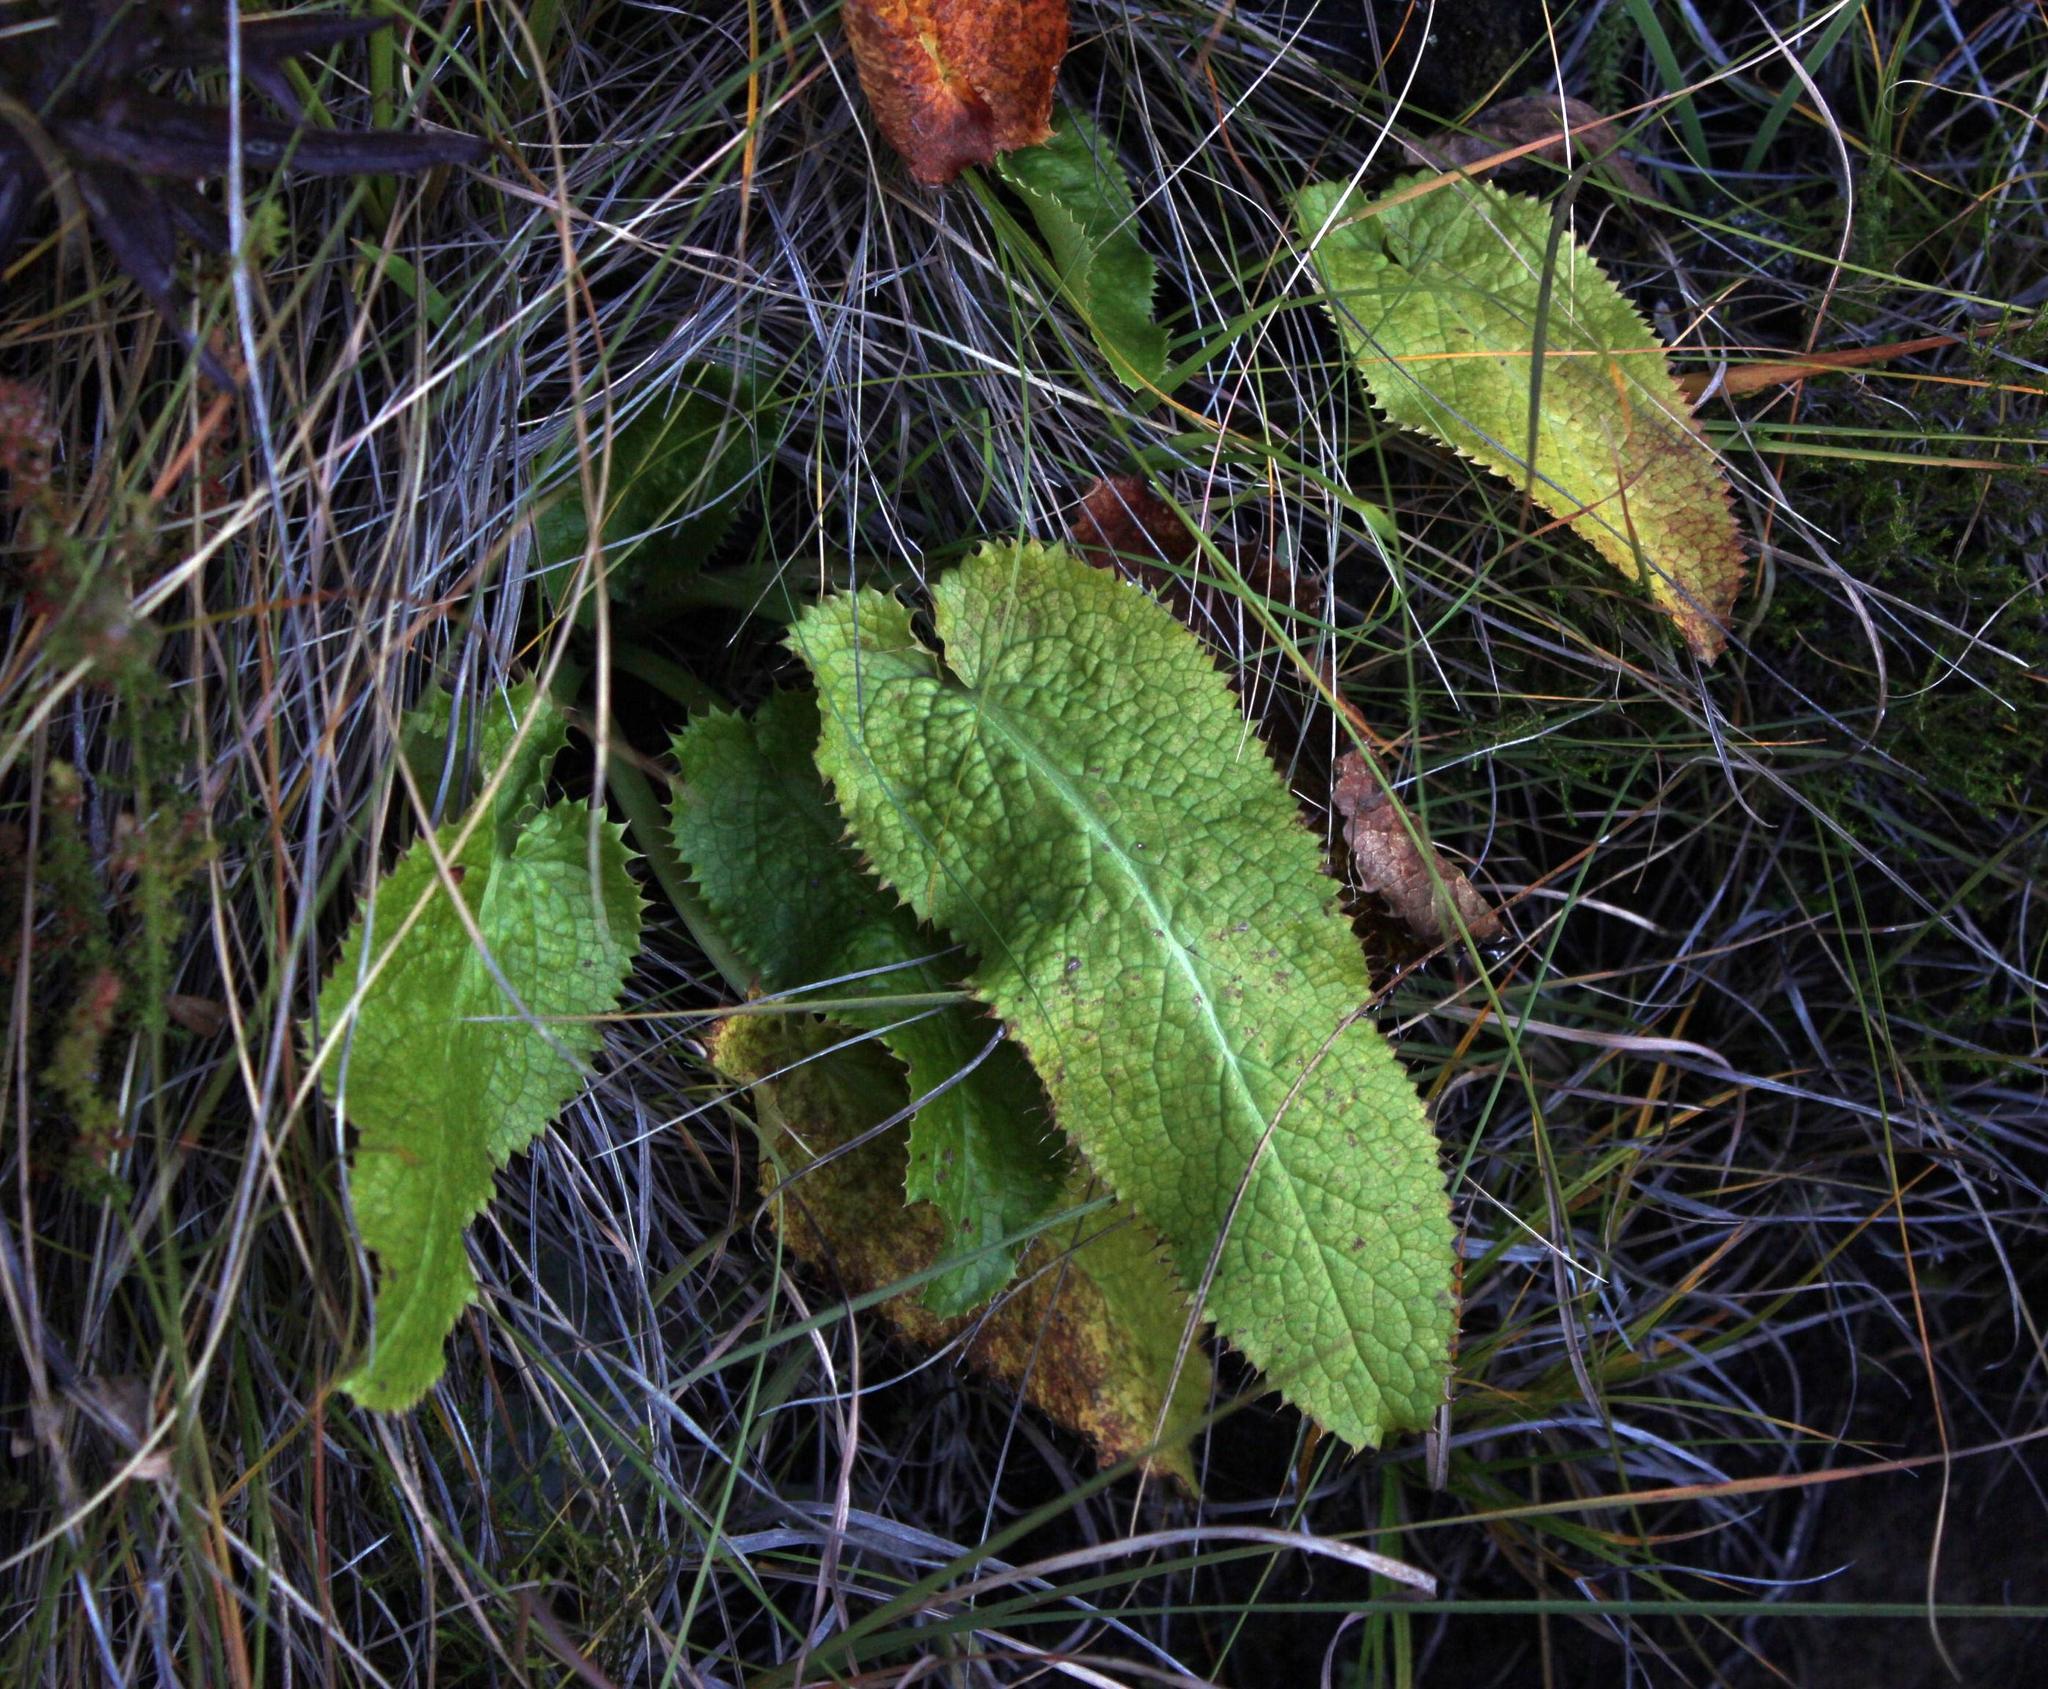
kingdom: Plantae
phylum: Tracheophyta
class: Magnoliopsida
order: Apiales
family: Apiaceae
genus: Alepidea
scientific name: Alepidea cordifolia
